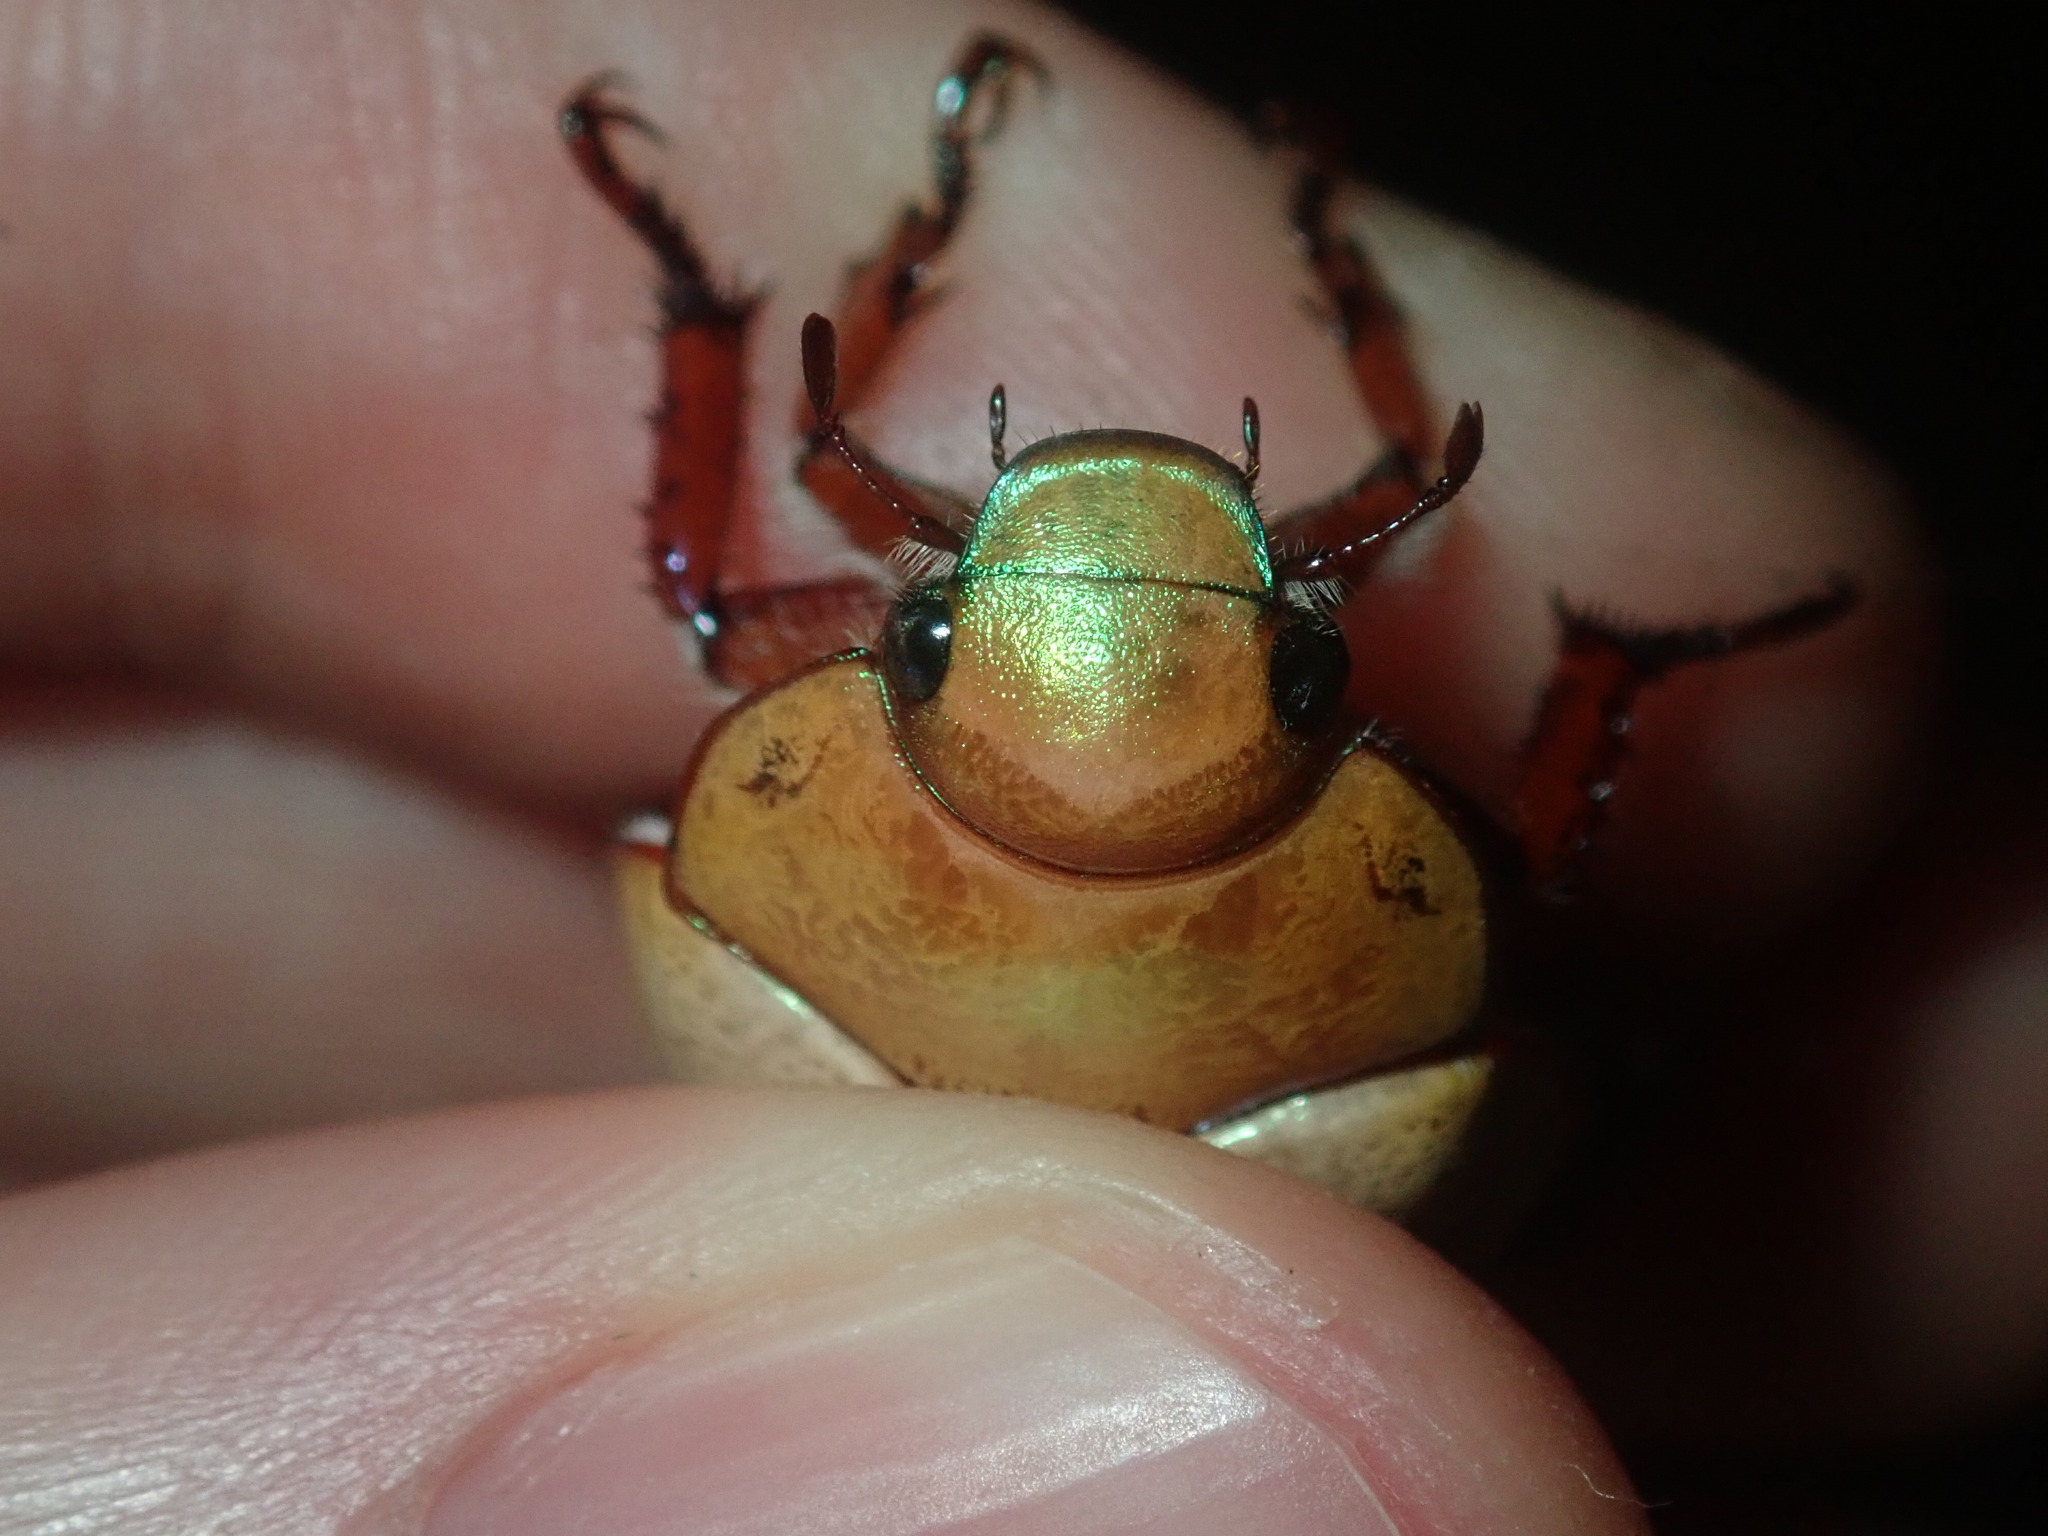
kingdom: Animalia
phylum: Arthropoda
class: Insecta
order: Coleoptera
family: Scarabaeidae
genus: Anoplognathus
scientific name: Anoplognathus olivieri
